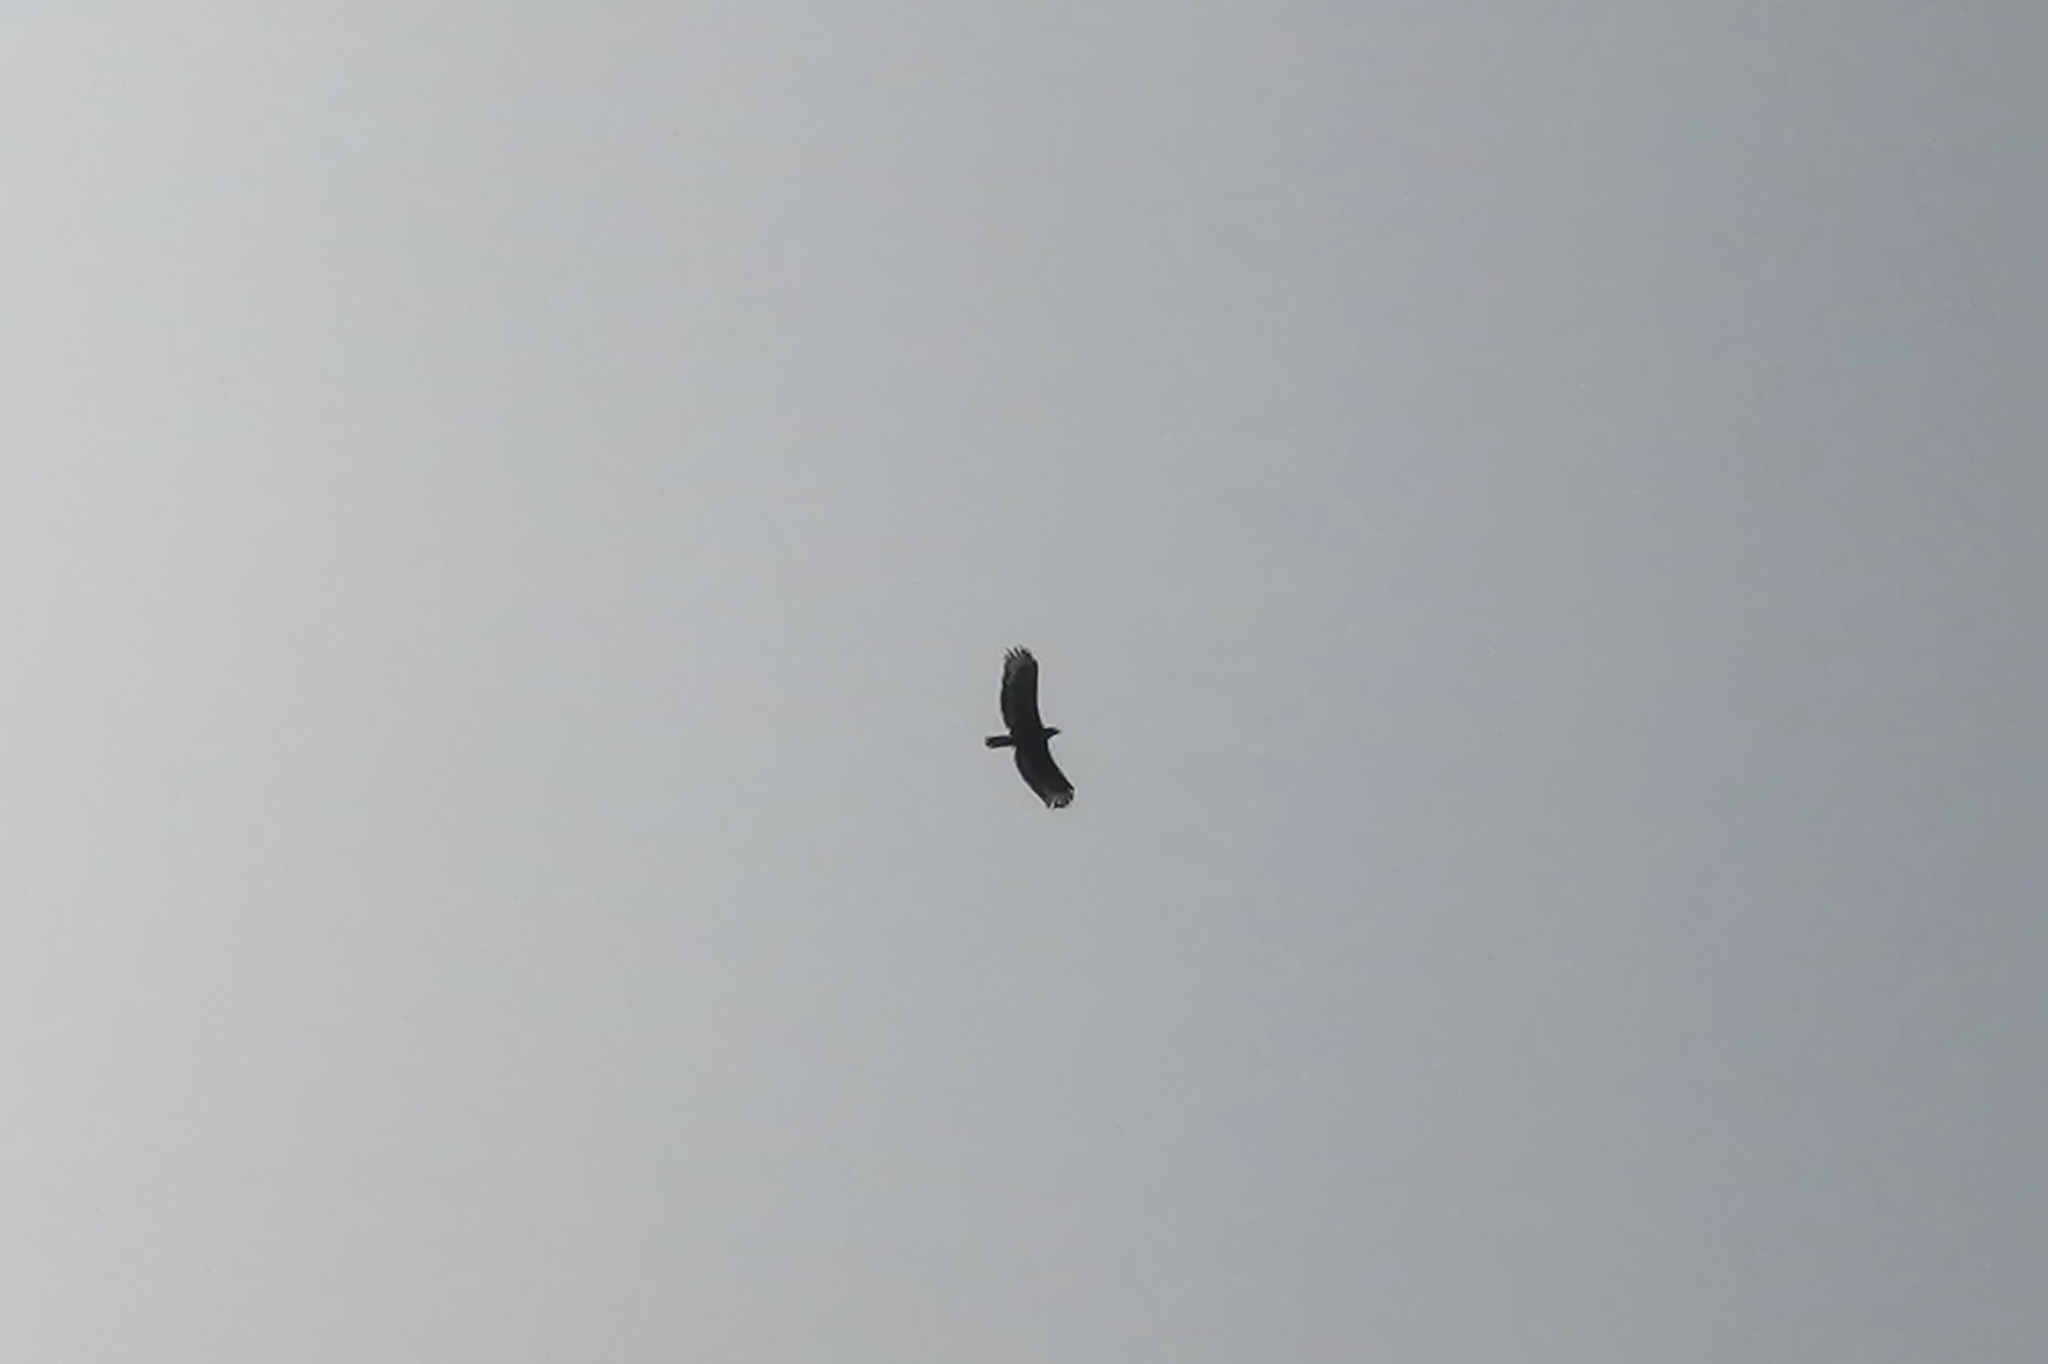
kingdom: Animalia
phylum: Chordata
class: Aves
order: Accipitriformes
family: Accipitridae
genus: Spilornis
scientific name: Spilornis cheela
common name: Crested serpent eagle
